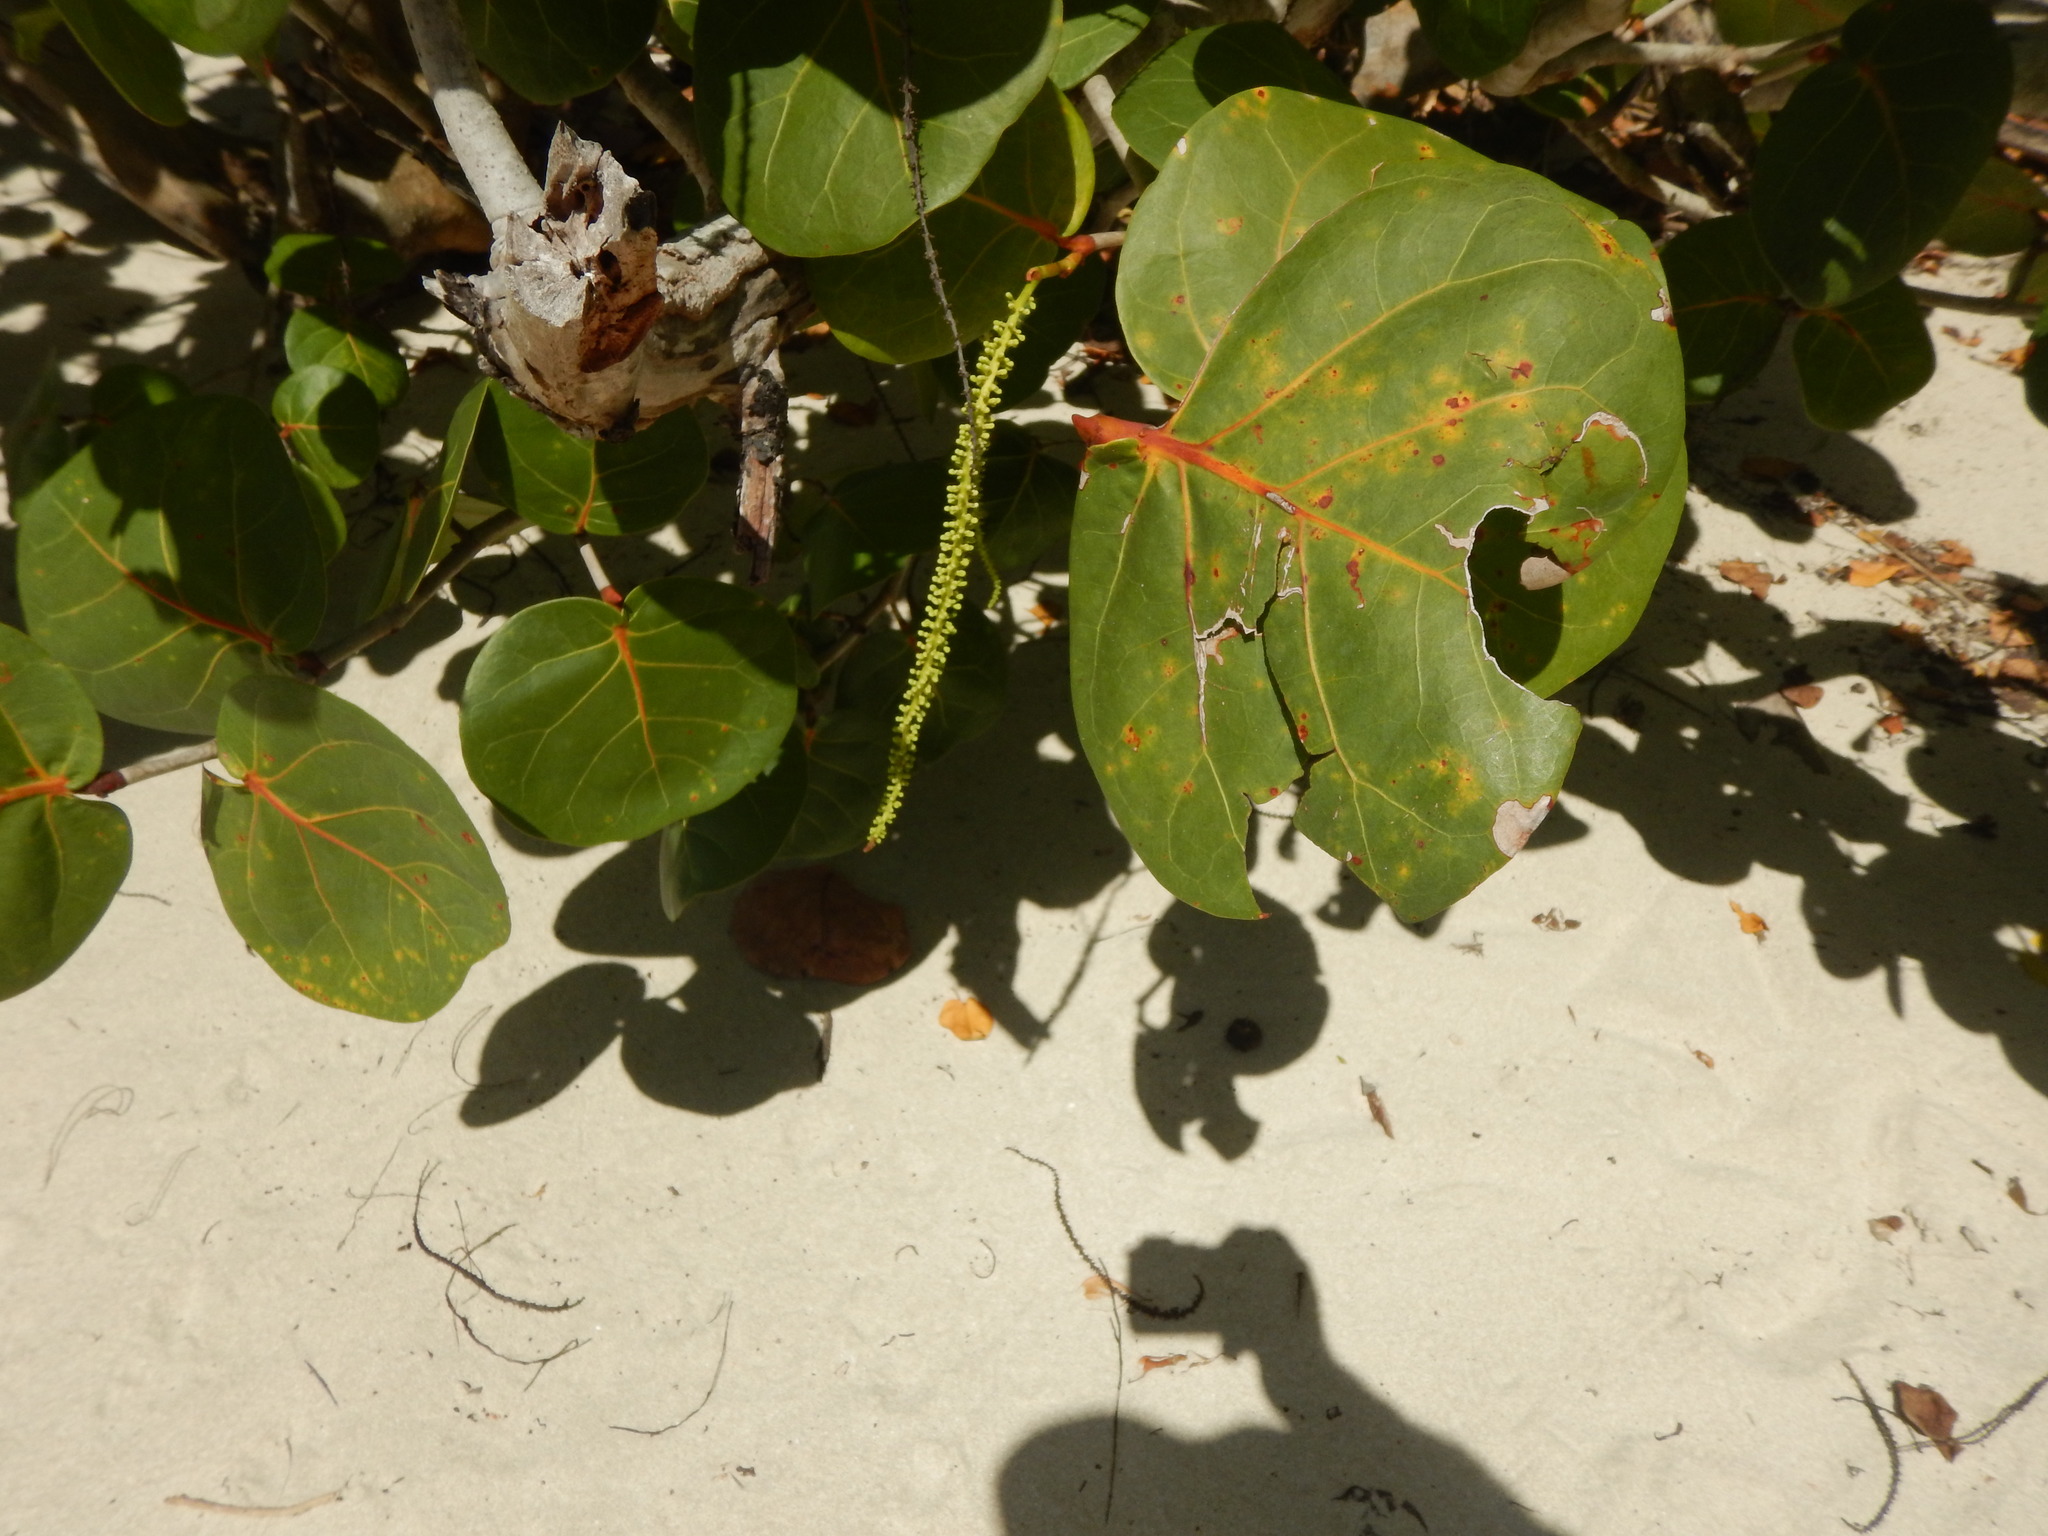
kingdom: Plantae
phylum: Tracheophyta
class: Magnoliopsida
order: Caryophyllales
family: Polygonaceae
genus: Coccoloba
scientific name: Coccoloba uvifera
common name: Seagrape
